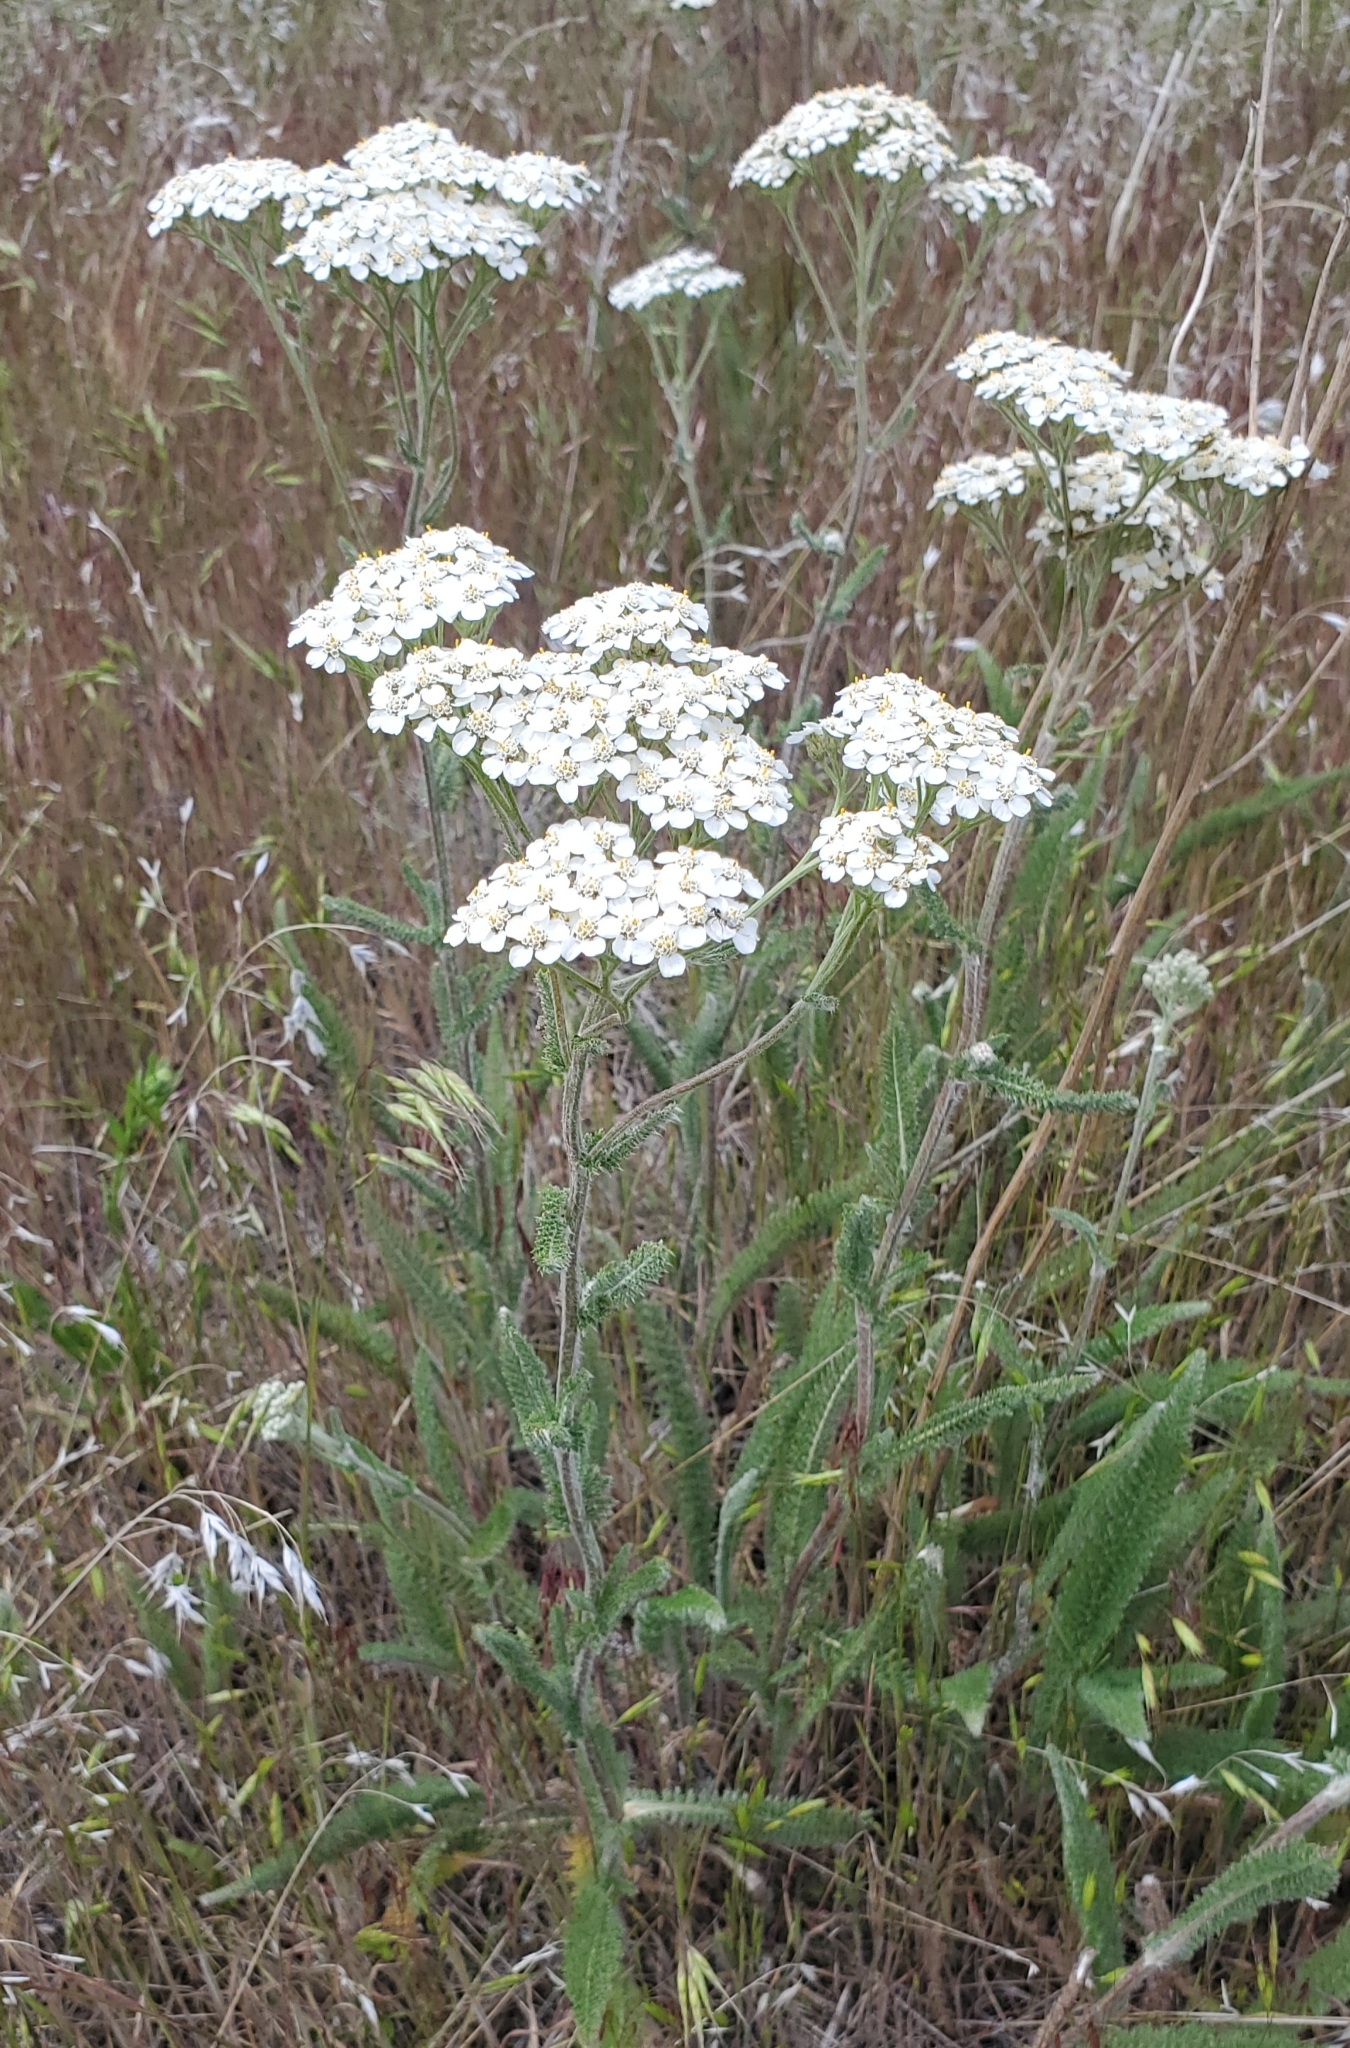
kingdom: Plantae
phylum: Tracheophyta
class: Magnoliopsida
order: Asterales
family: Asteraceae
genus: Achillea
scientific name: Achillea millefolium
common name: Yarrow
